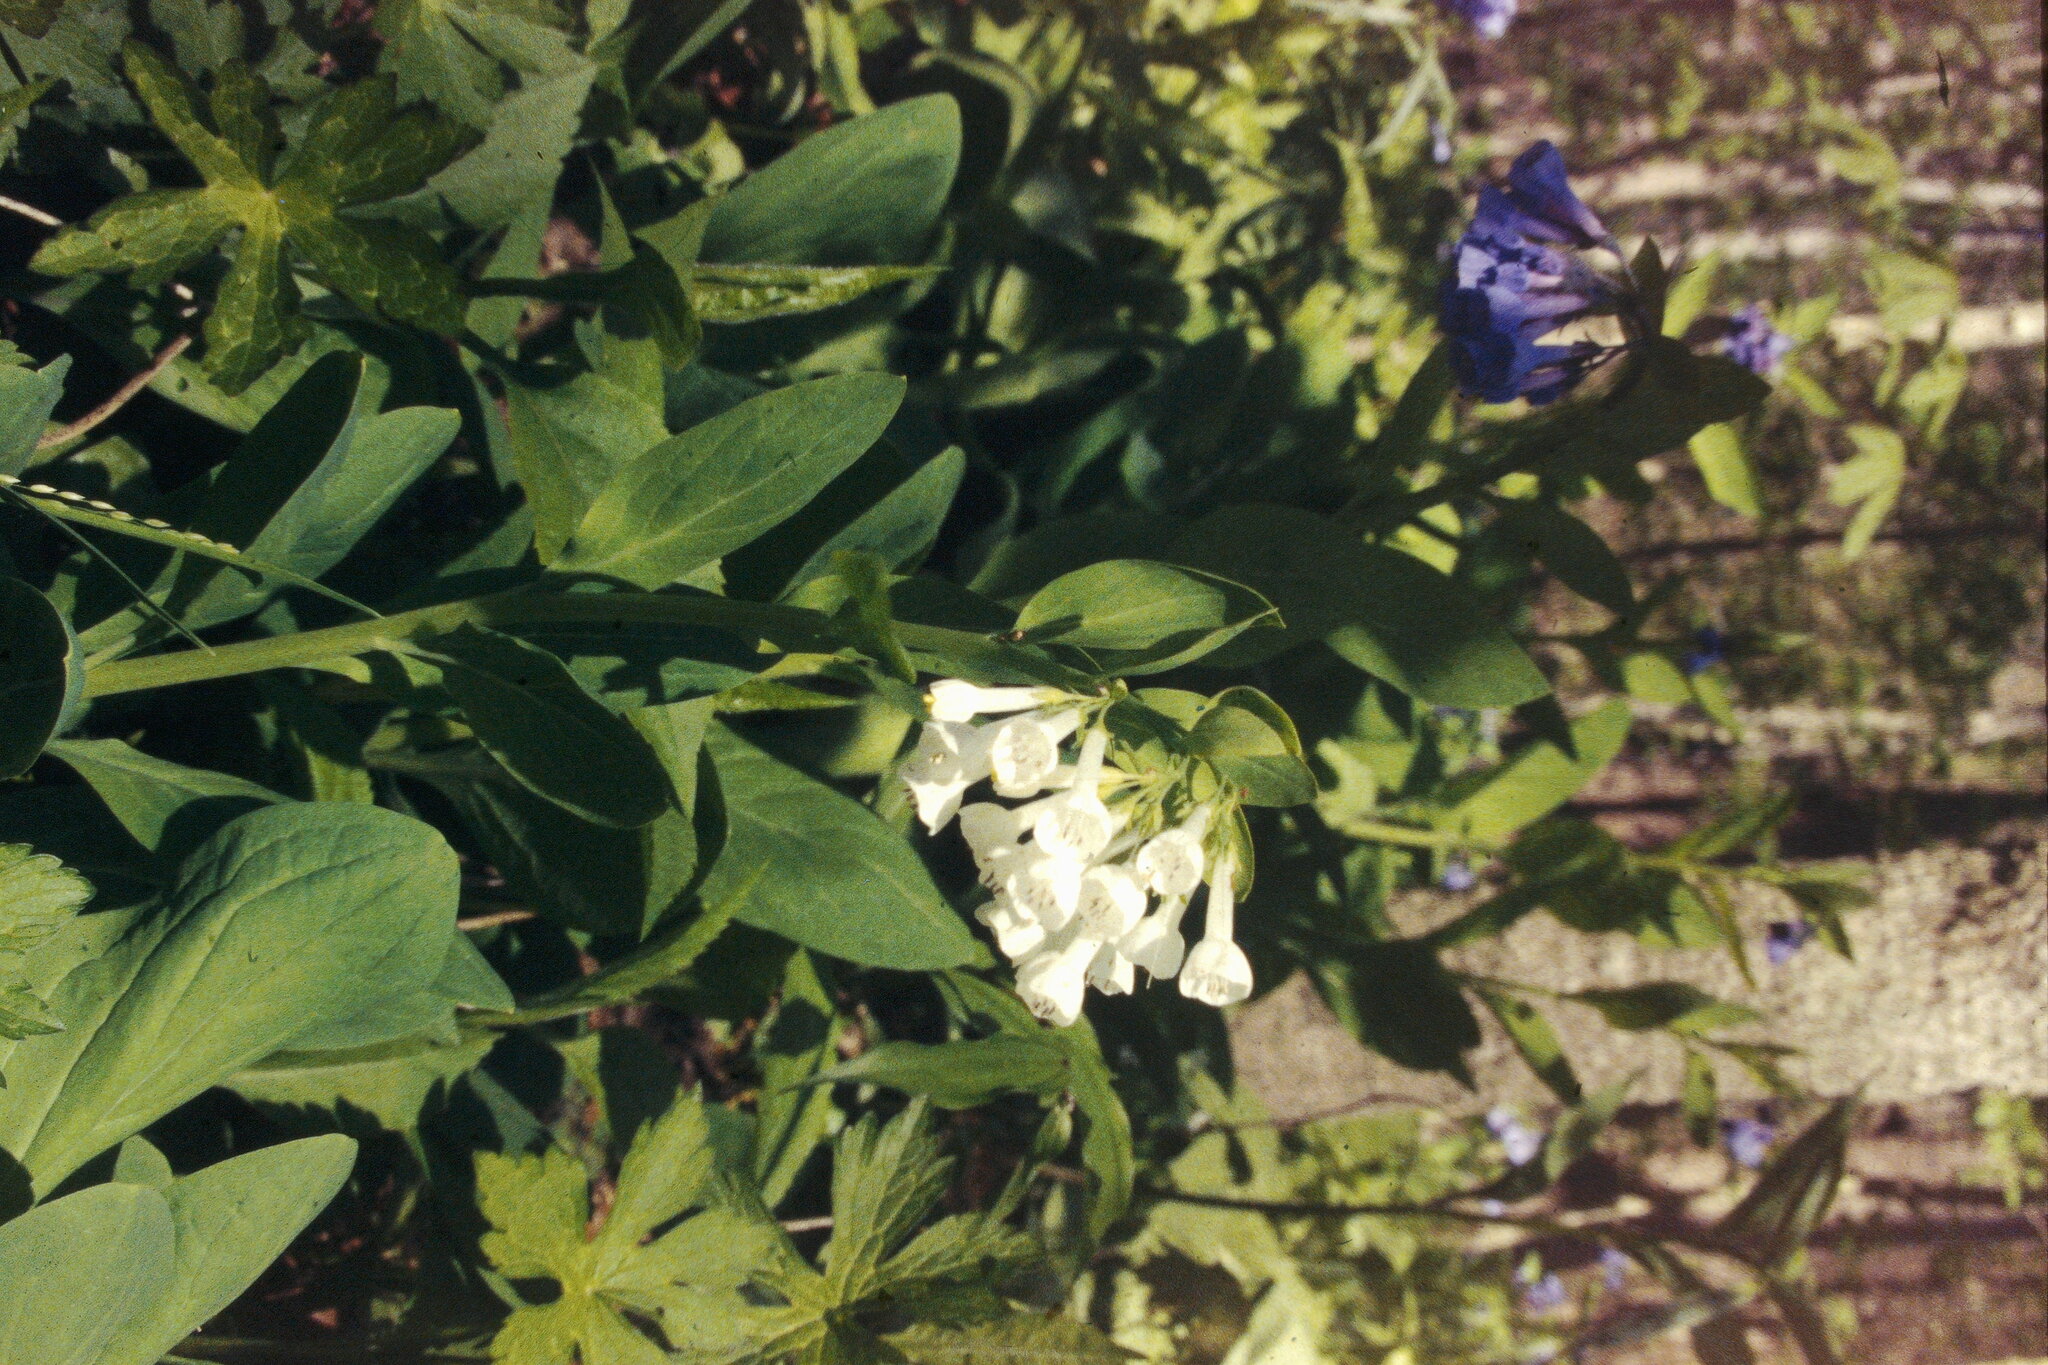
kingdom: Plantae
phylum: Tracheophyta
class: Magnoliopsida
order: Boraginales
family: Boraginaceae
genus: Mertensia
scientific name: Mertensia virginica
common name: Virginia bluebells
